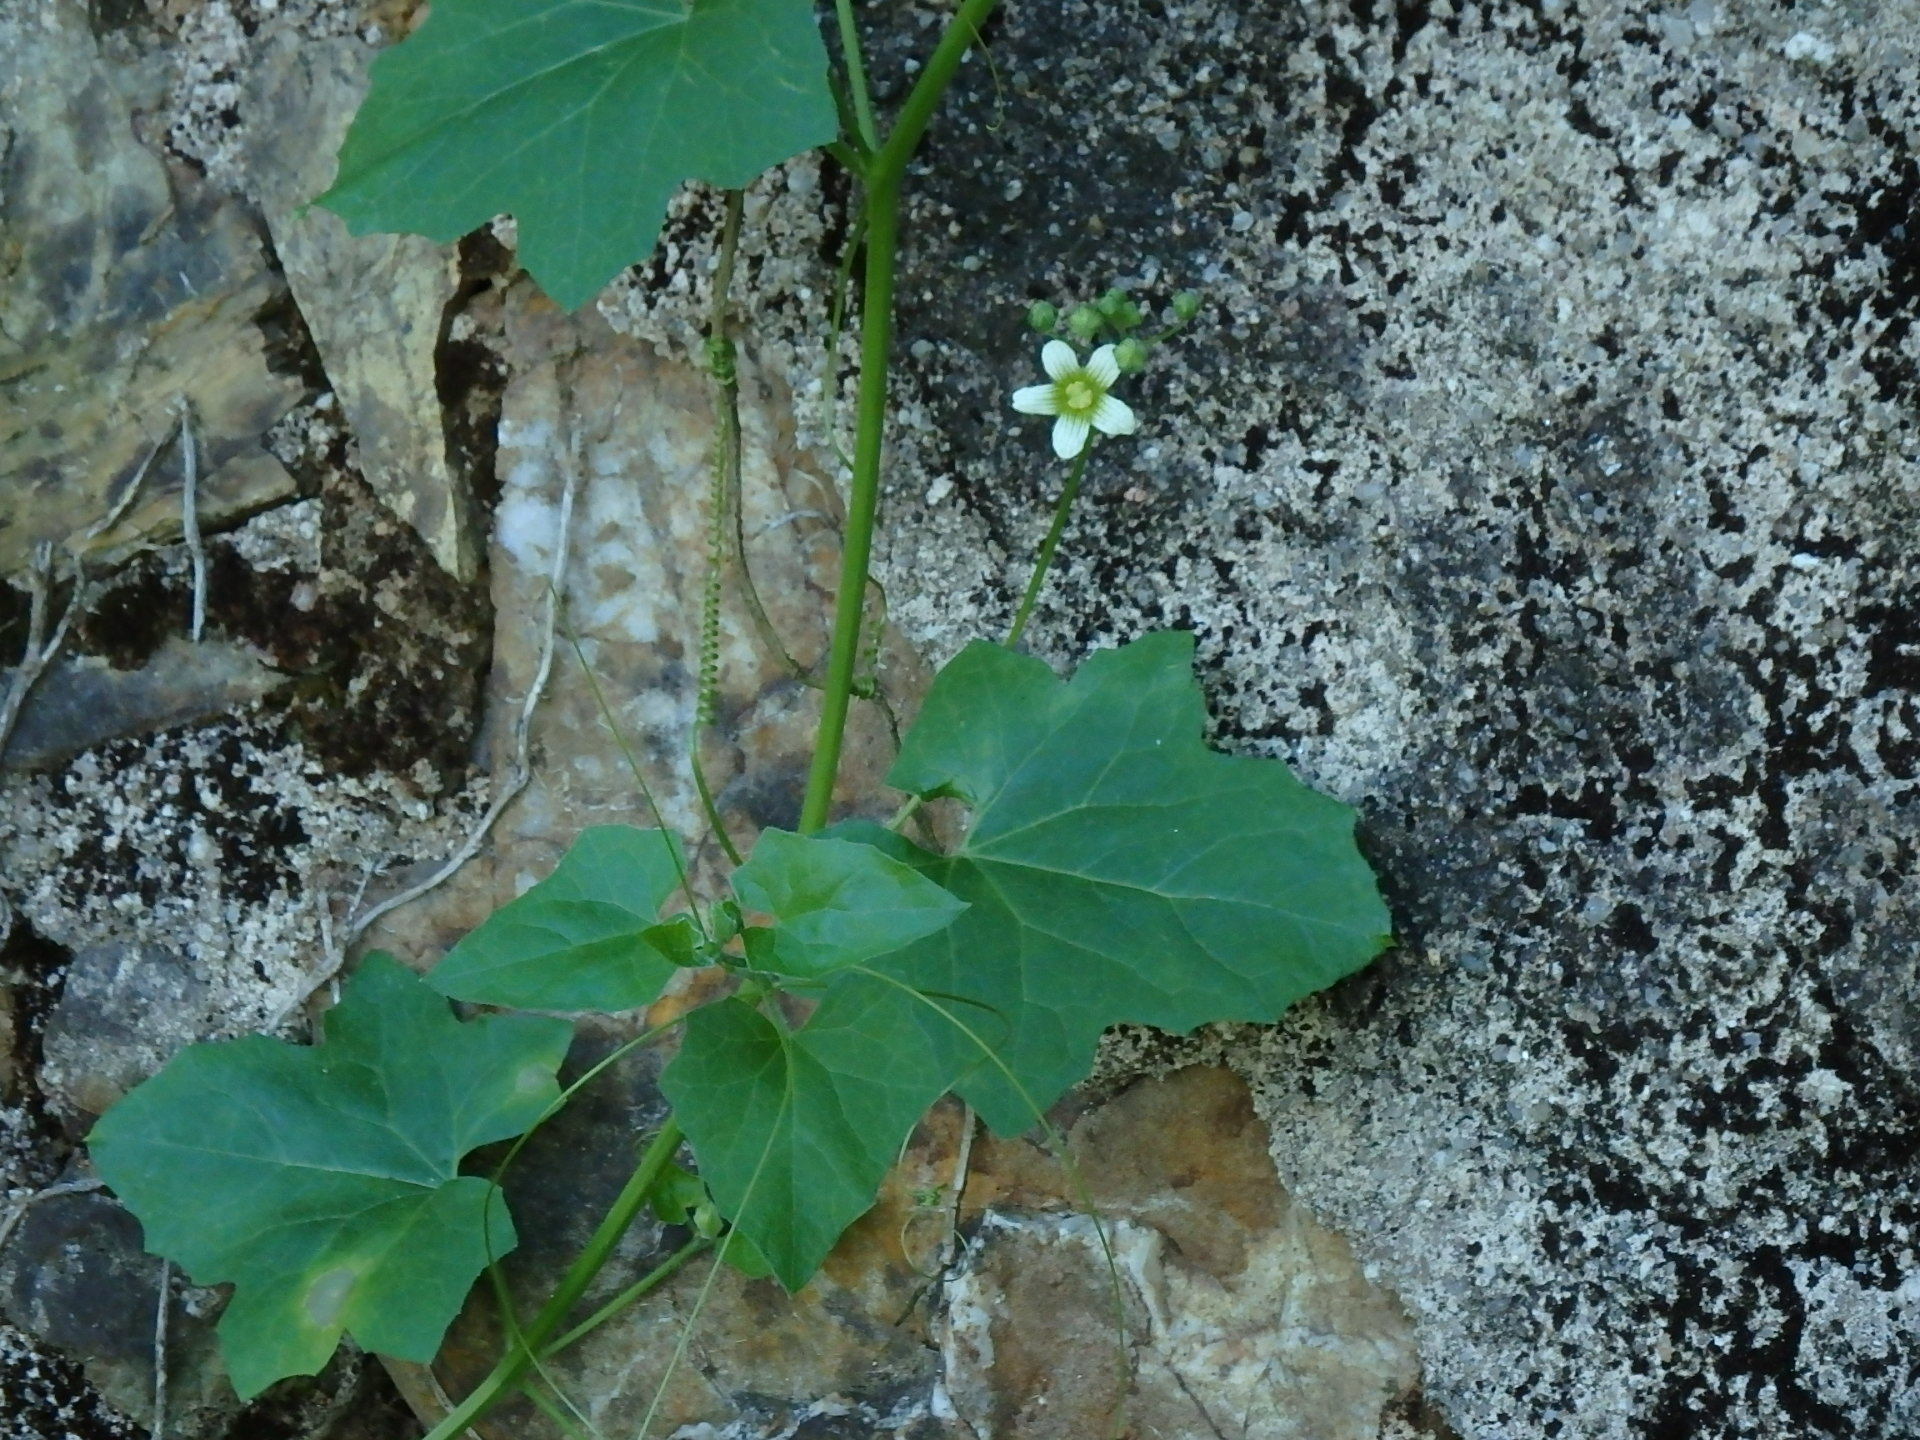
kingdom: Plantae
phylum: Tracheophyta
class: Magnoliopsida
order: Cucurbitales
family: Cucurbitaceae
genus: Bryonia
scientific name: Bryonia dioica
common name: White bryony
